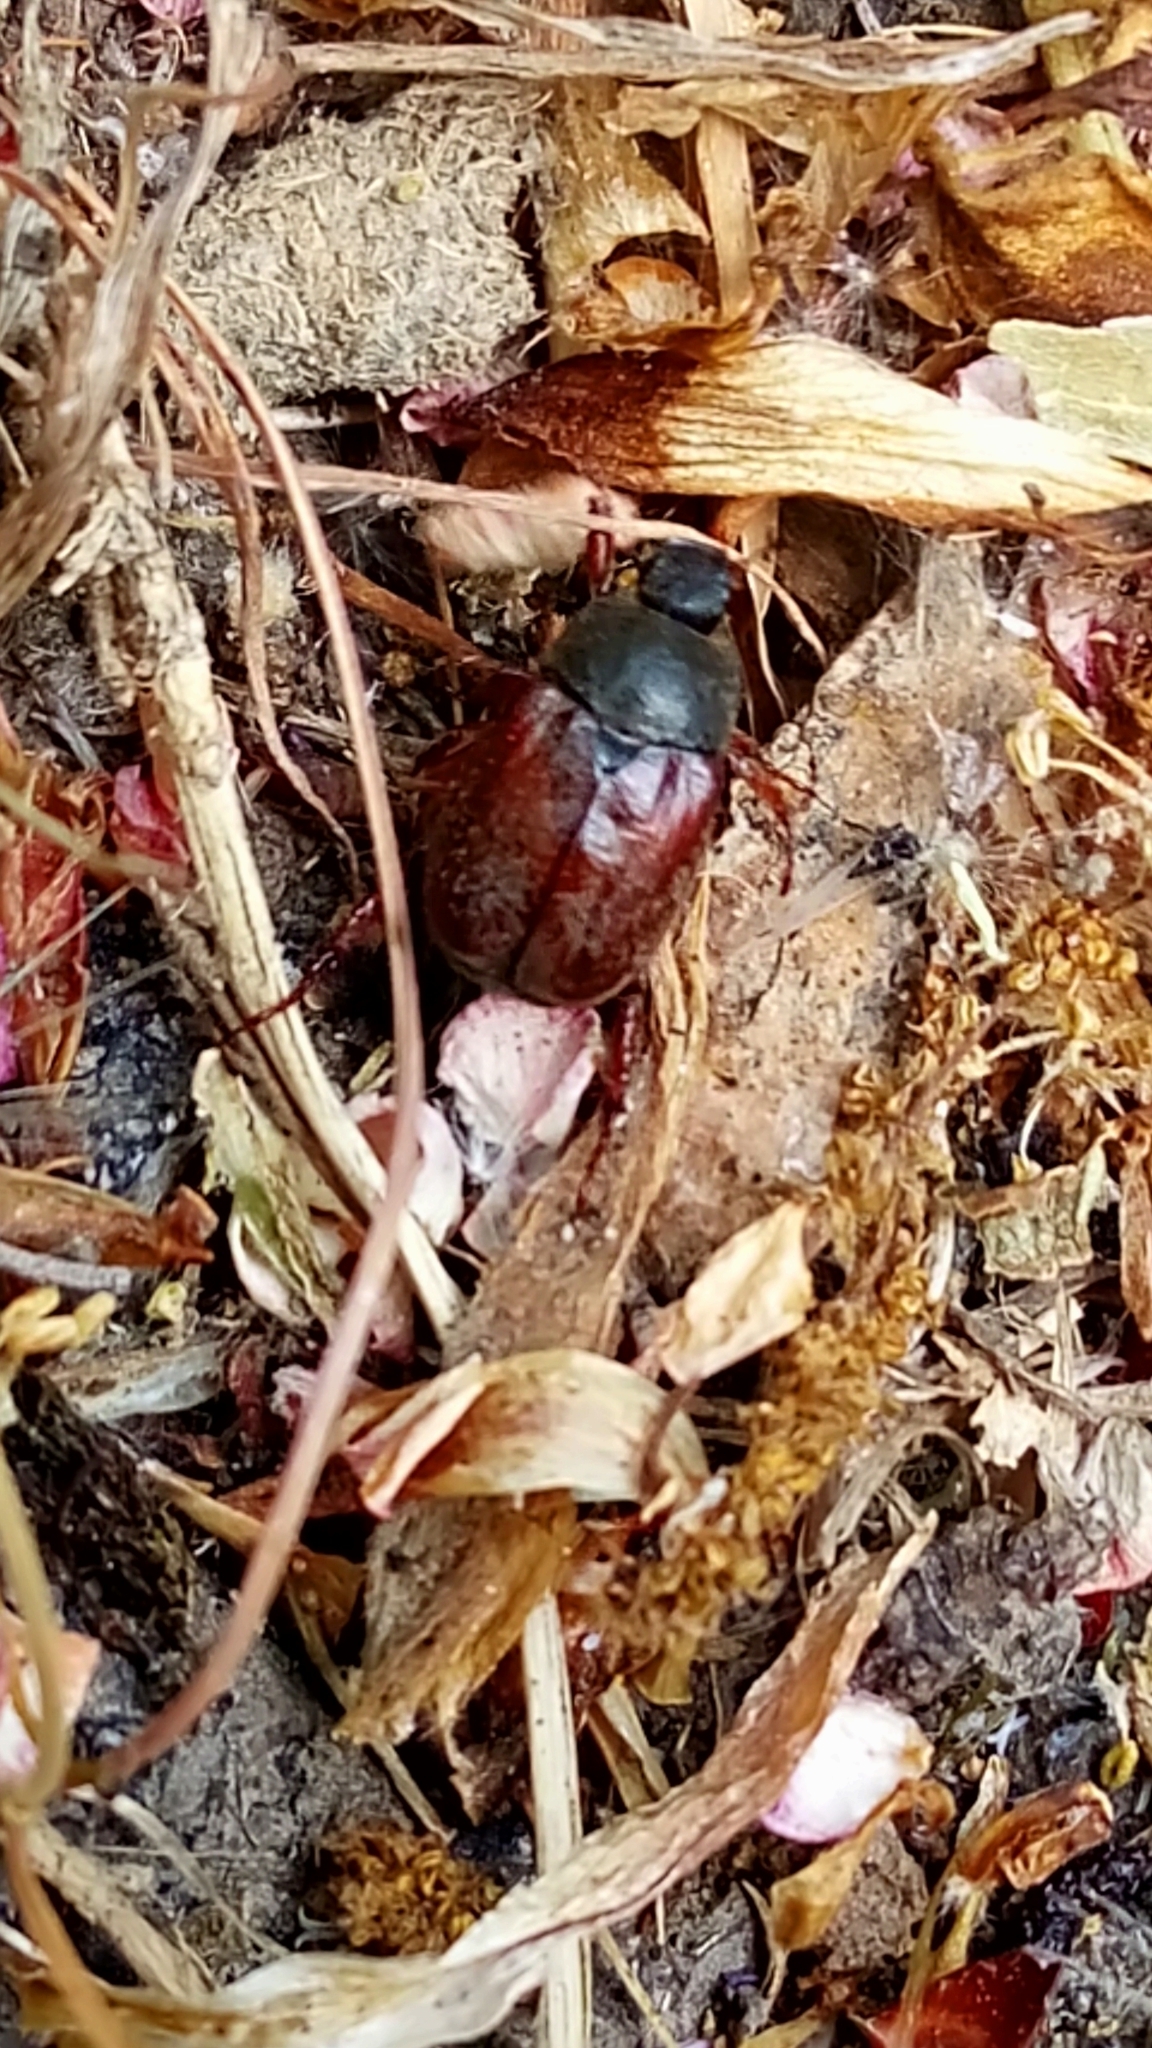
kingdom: Animalia
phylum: Arthropoda
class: Insecta
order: Coleoptera
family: Scarabaeidae
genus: Hoplia
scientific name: Hoplia philanthus
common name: Welsh chafer
